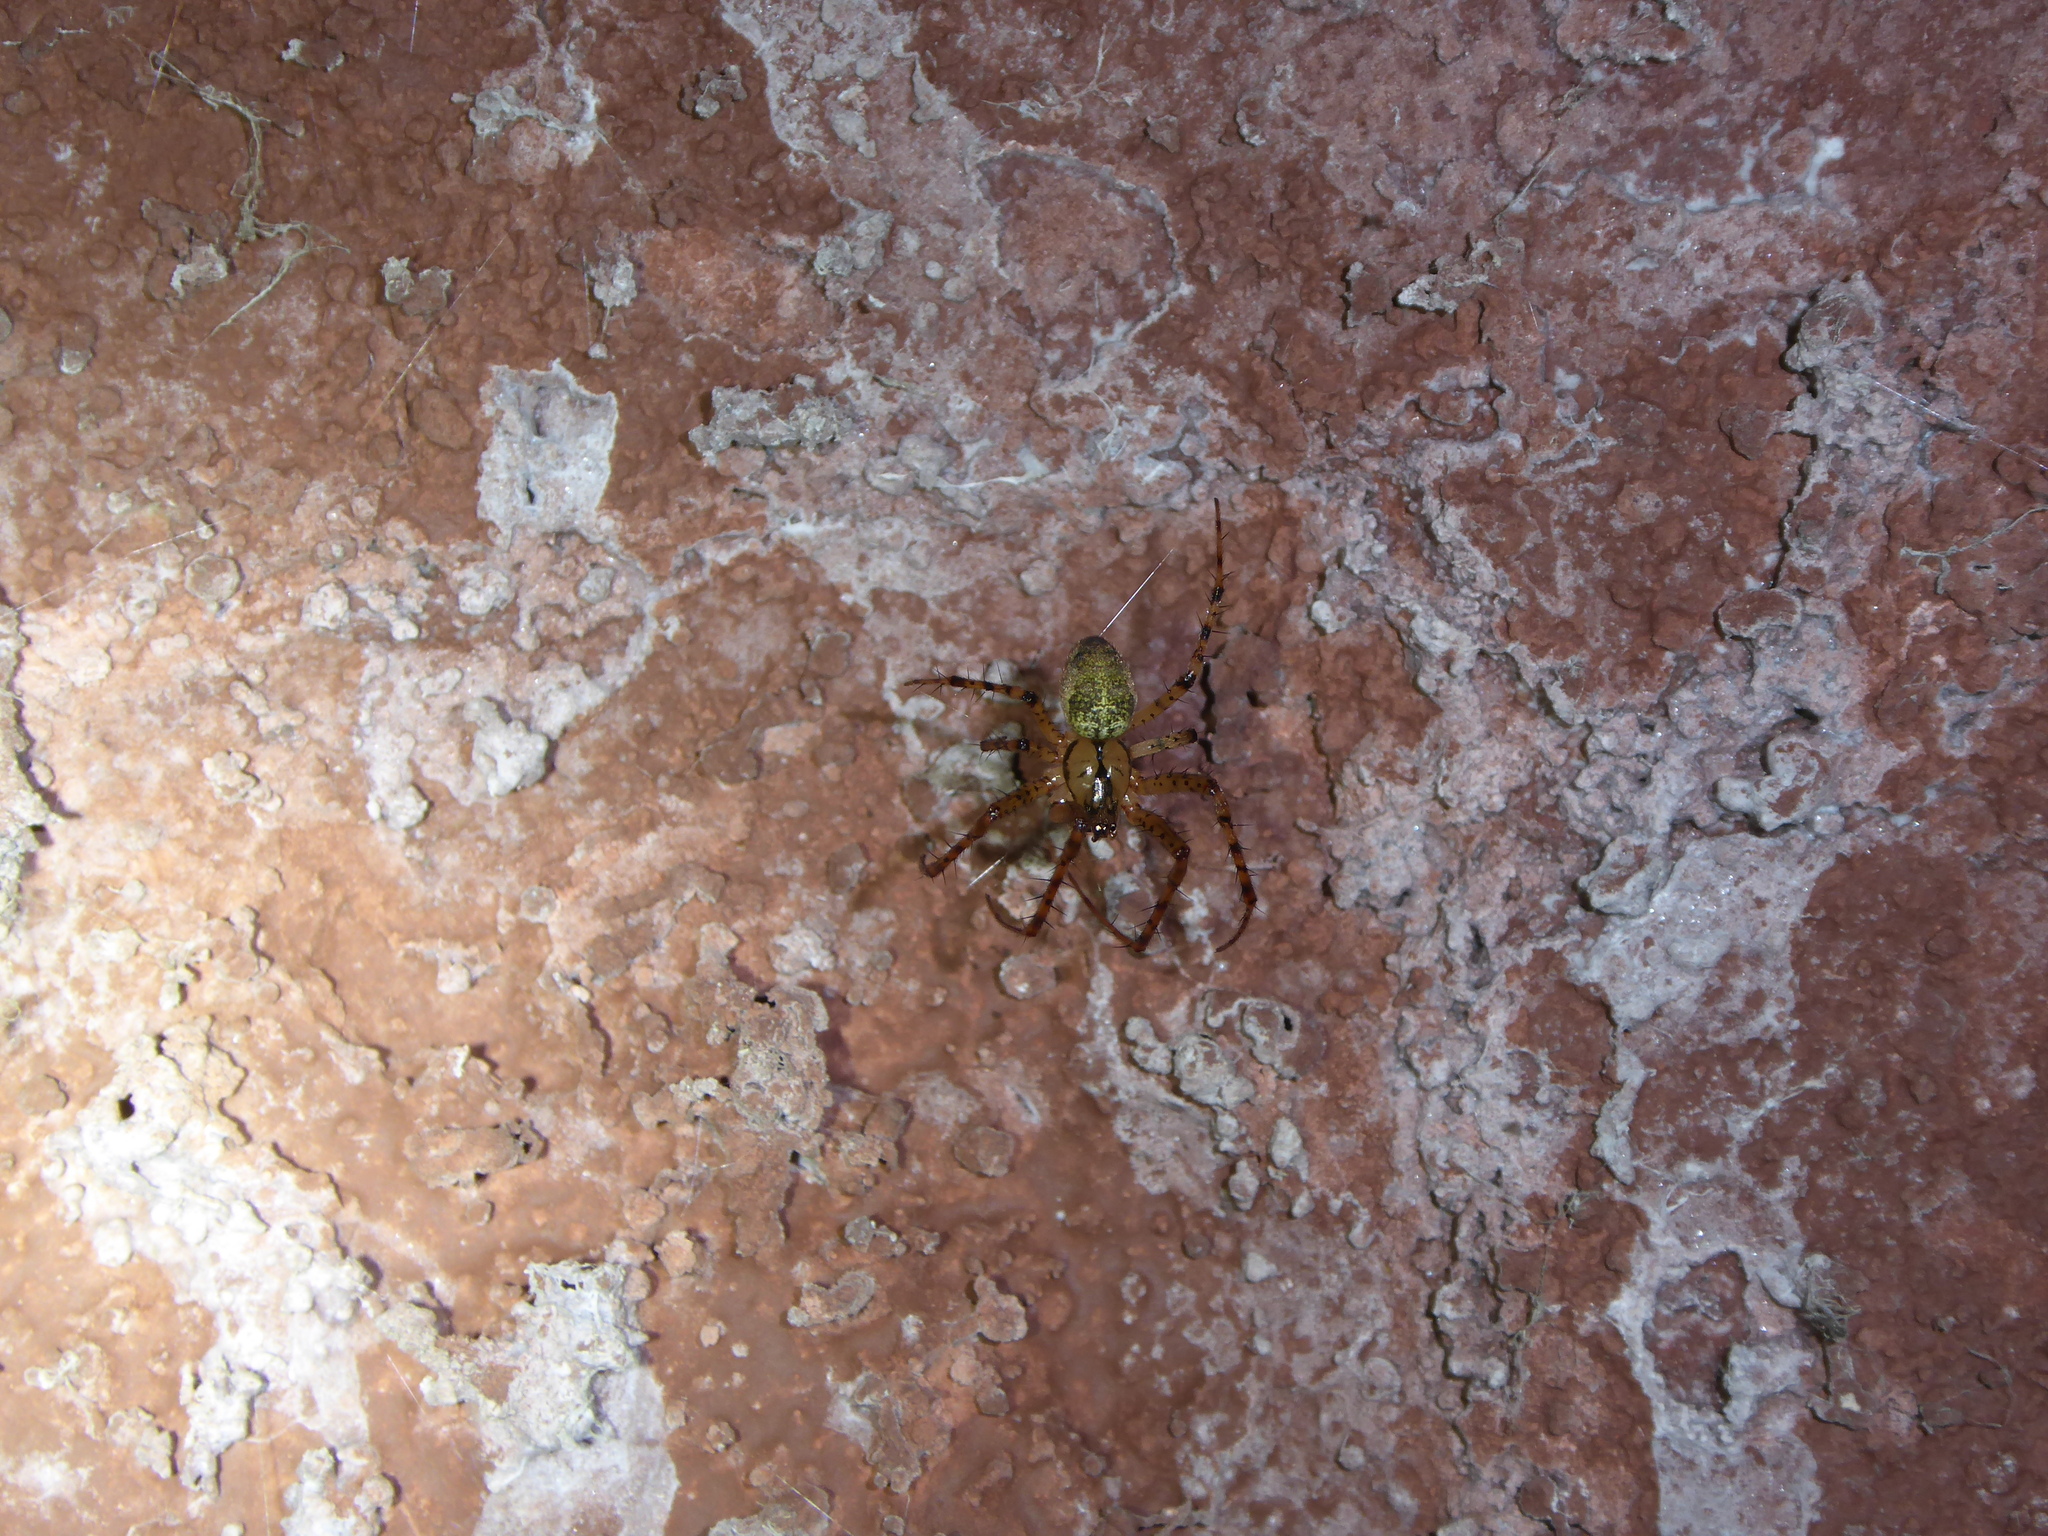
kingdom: Animalia
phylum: Arthropoda
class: Arachnida
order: Araneae
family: Tetragnathidae
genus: Metellina
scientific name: Metellina merianae
